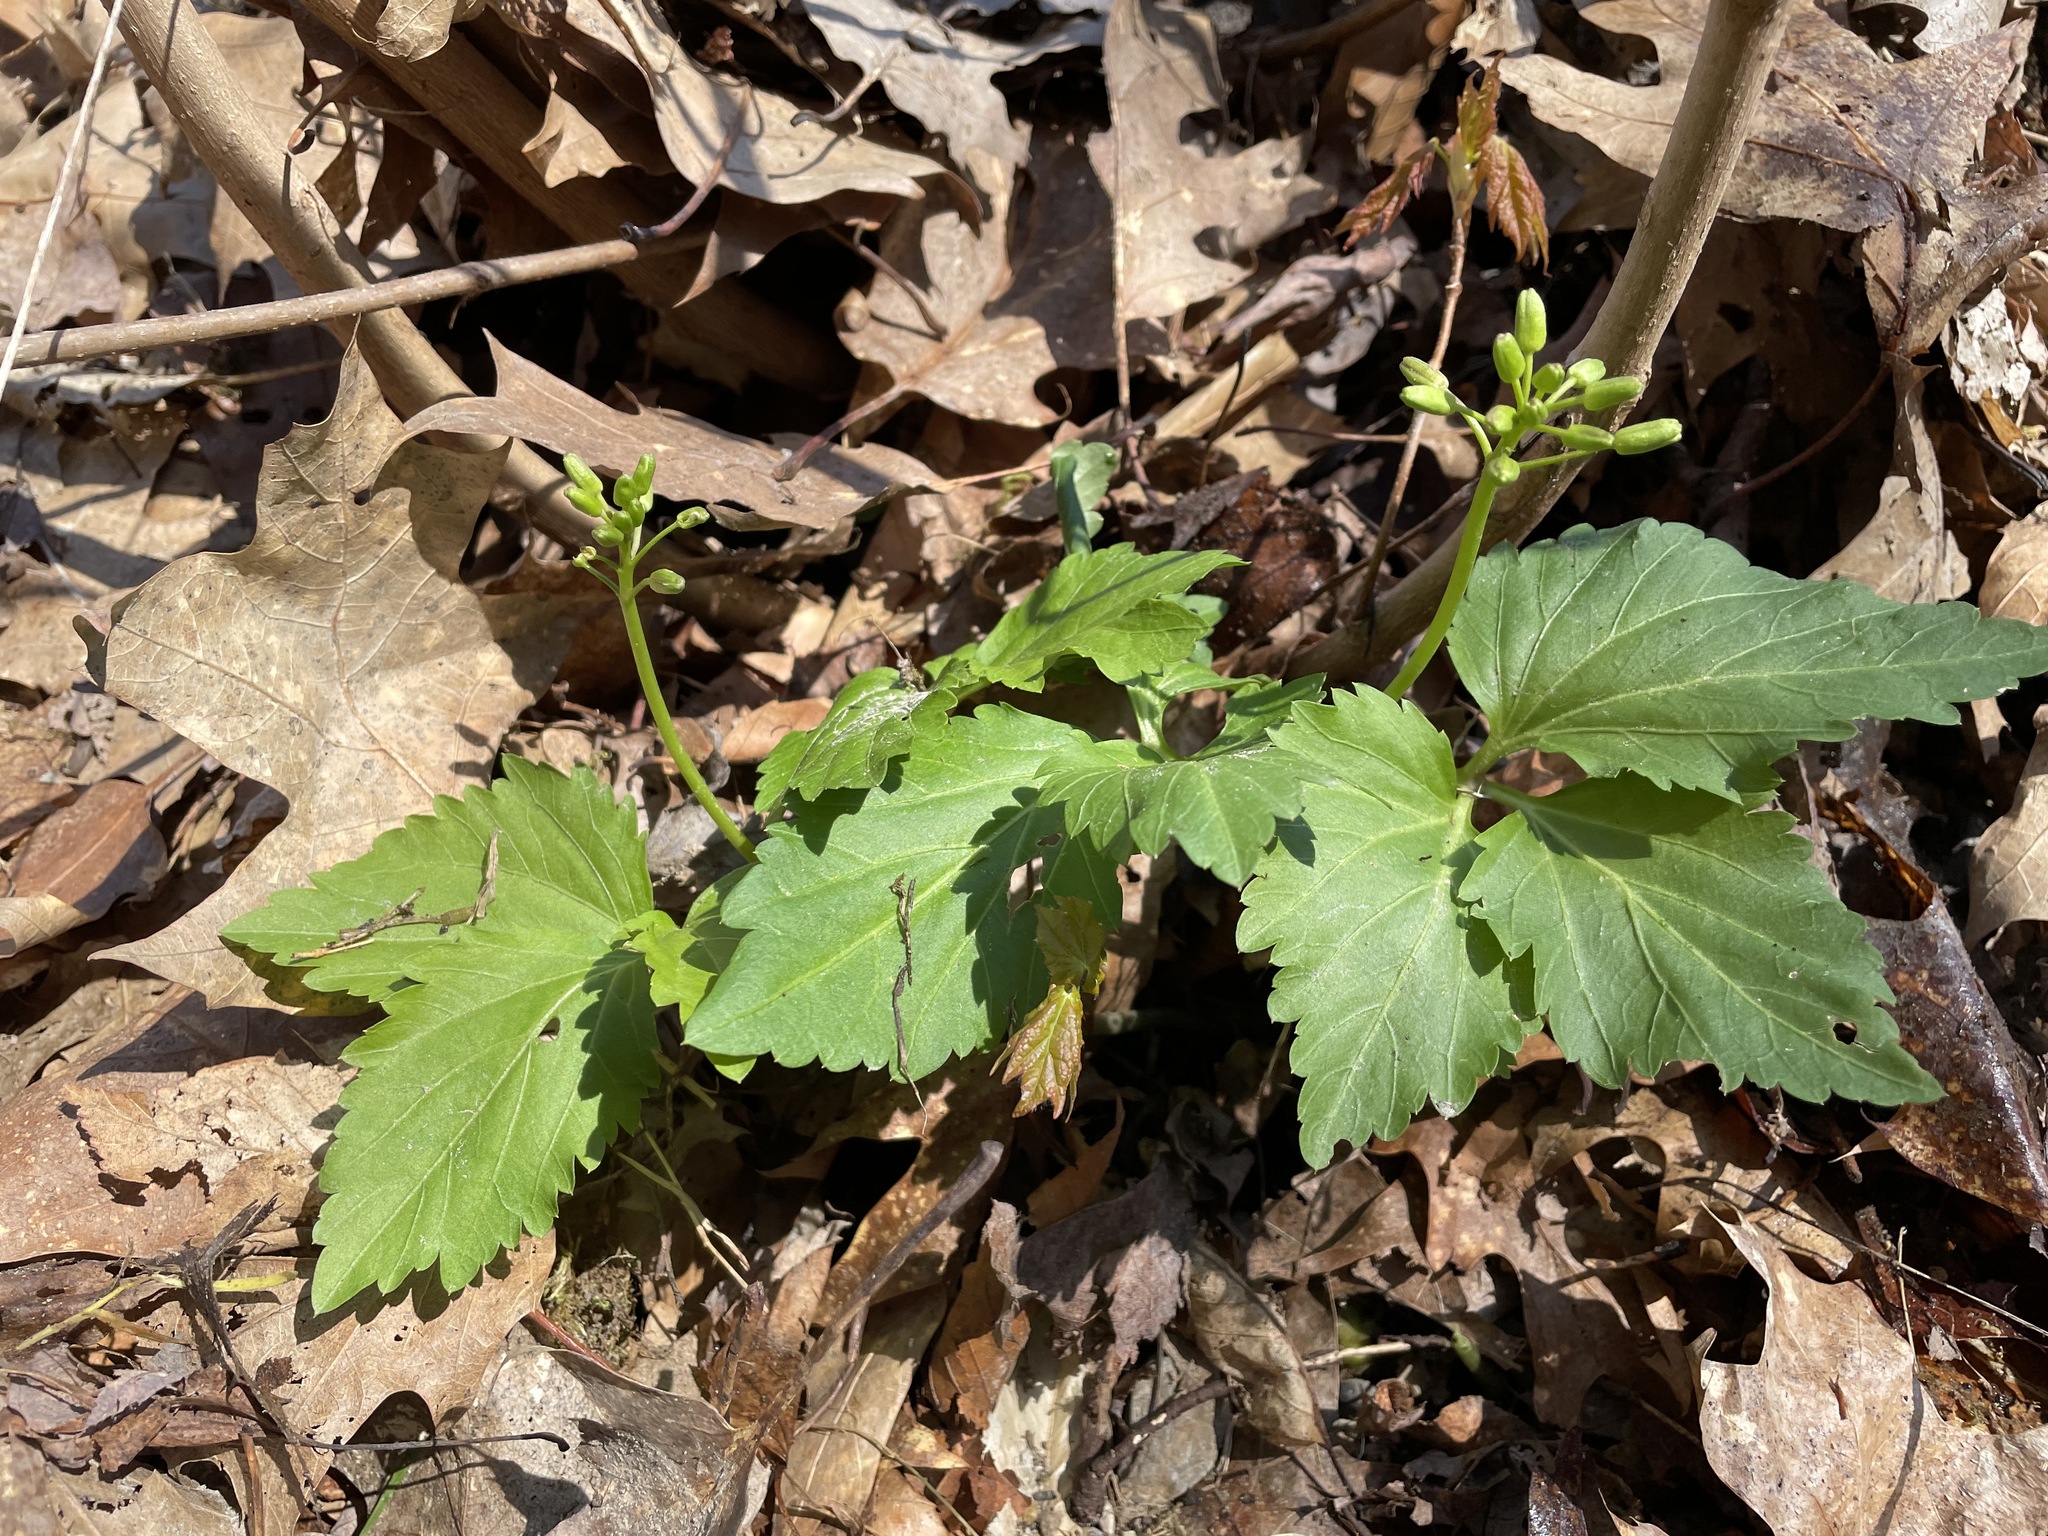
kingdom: Plantae
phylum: Tracheophyta
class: Magnoliopsida
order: Brassicales
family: Brassicaceae
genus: Cardamine
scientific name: Cardamine diphylla
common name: Broad-leaved toothwort
